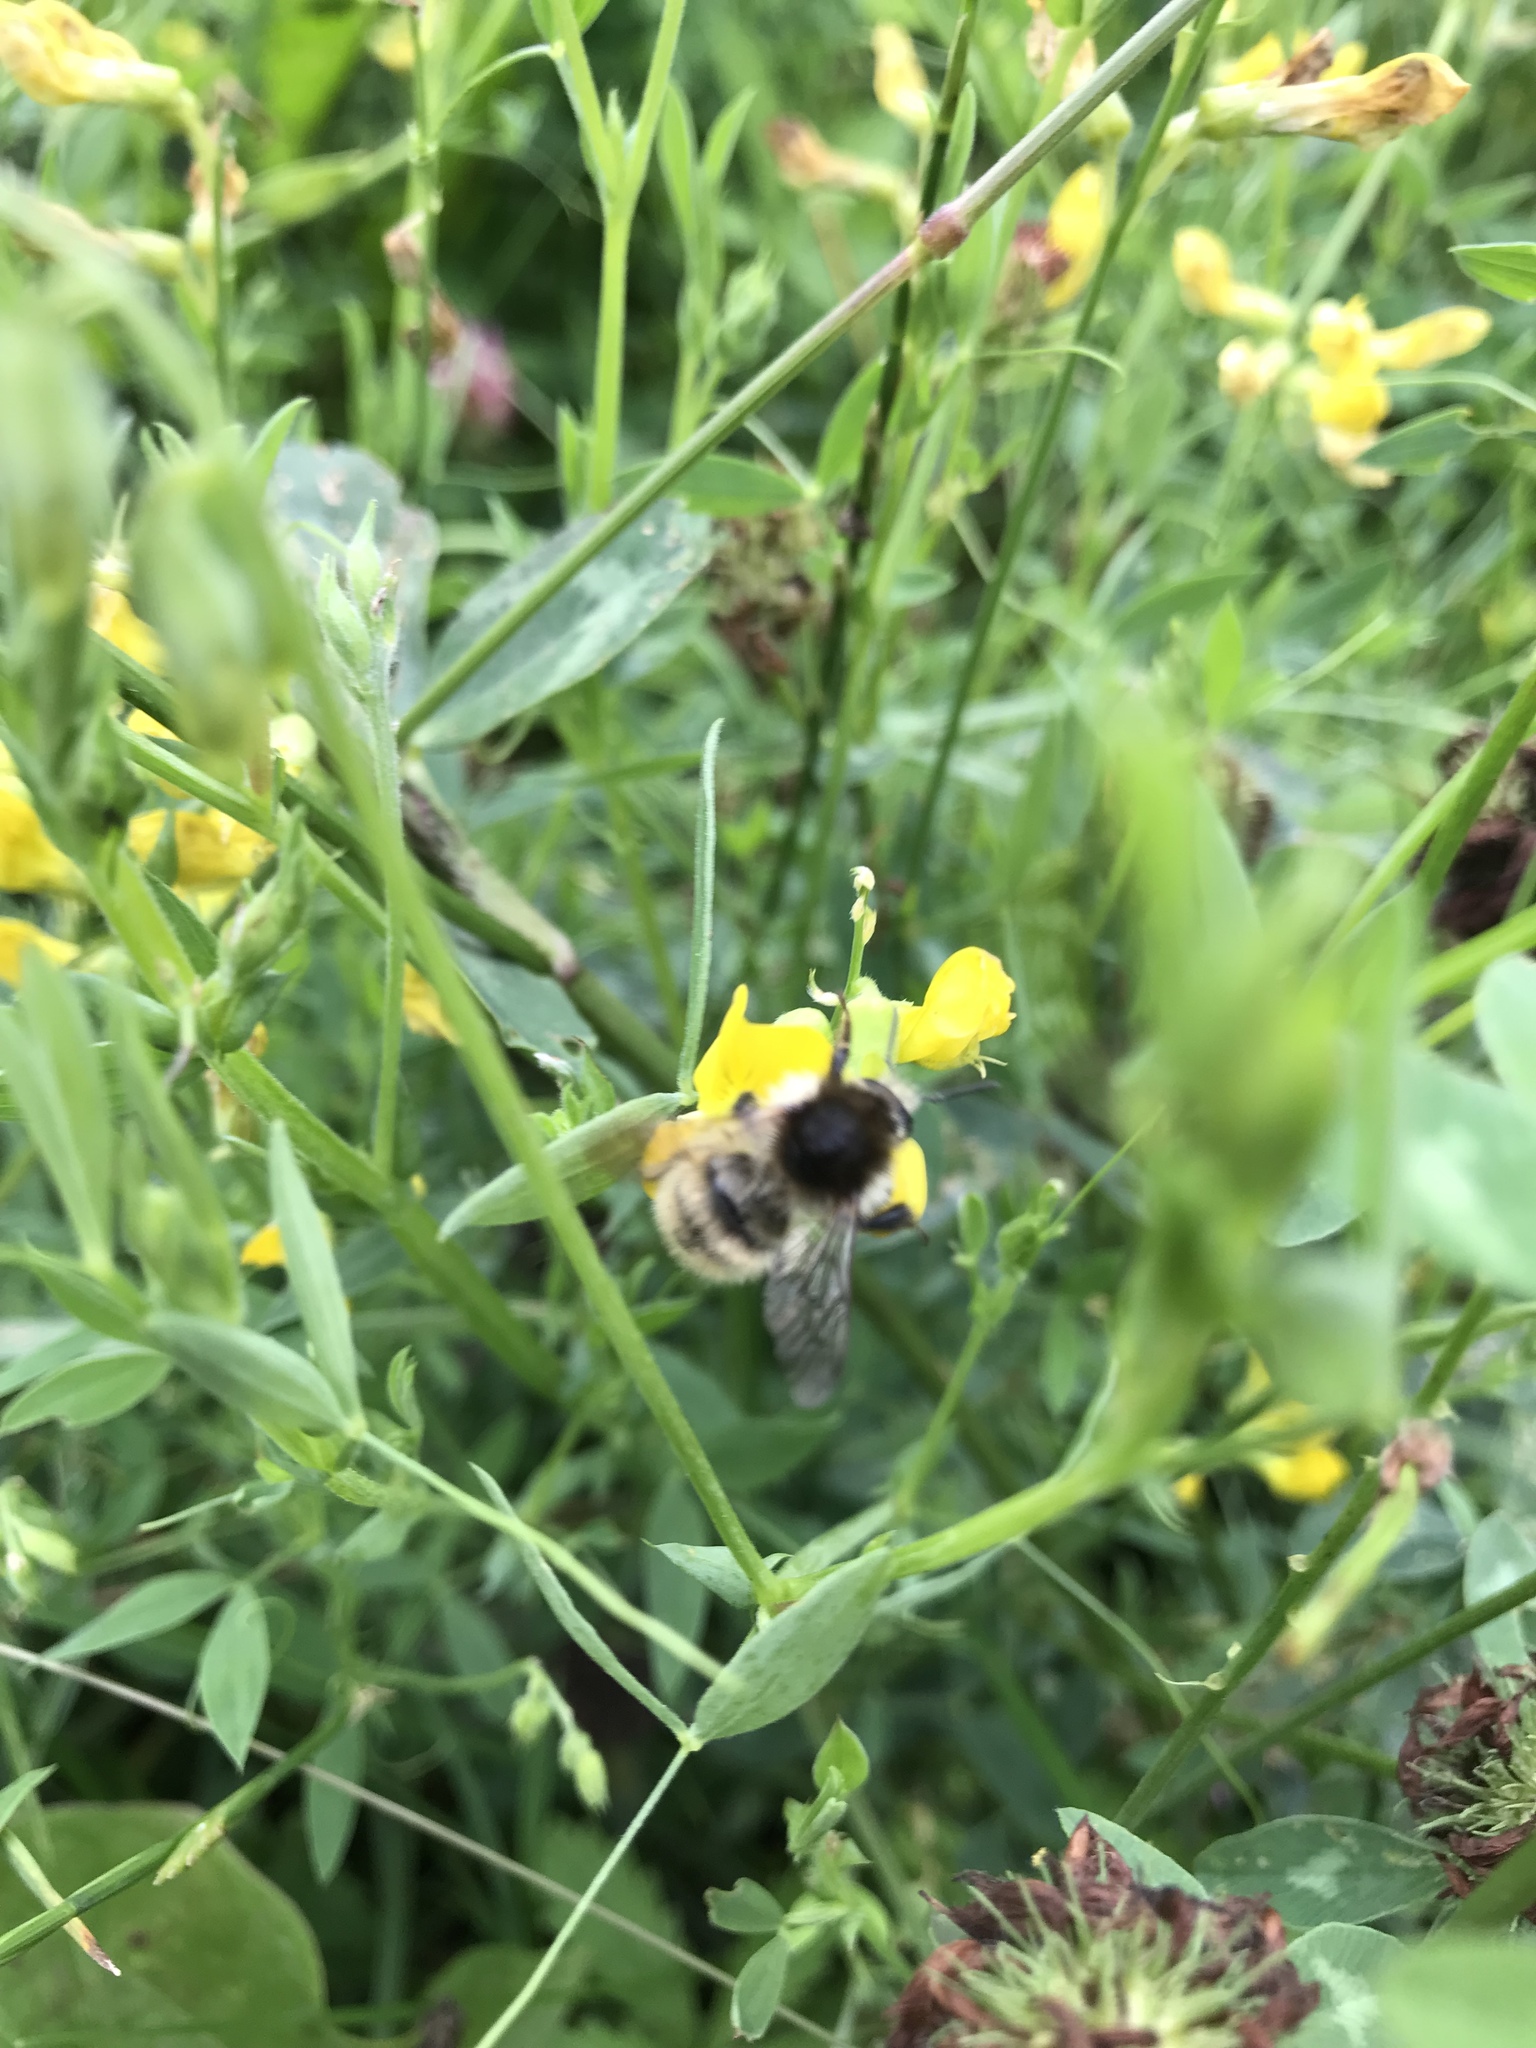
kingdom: Animalia
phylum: Arthropoda
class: Insecta
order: Hymenoptera
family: Apidae
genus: Bombus
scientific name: Bombus humilis
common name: Brown-banded carder-bee
